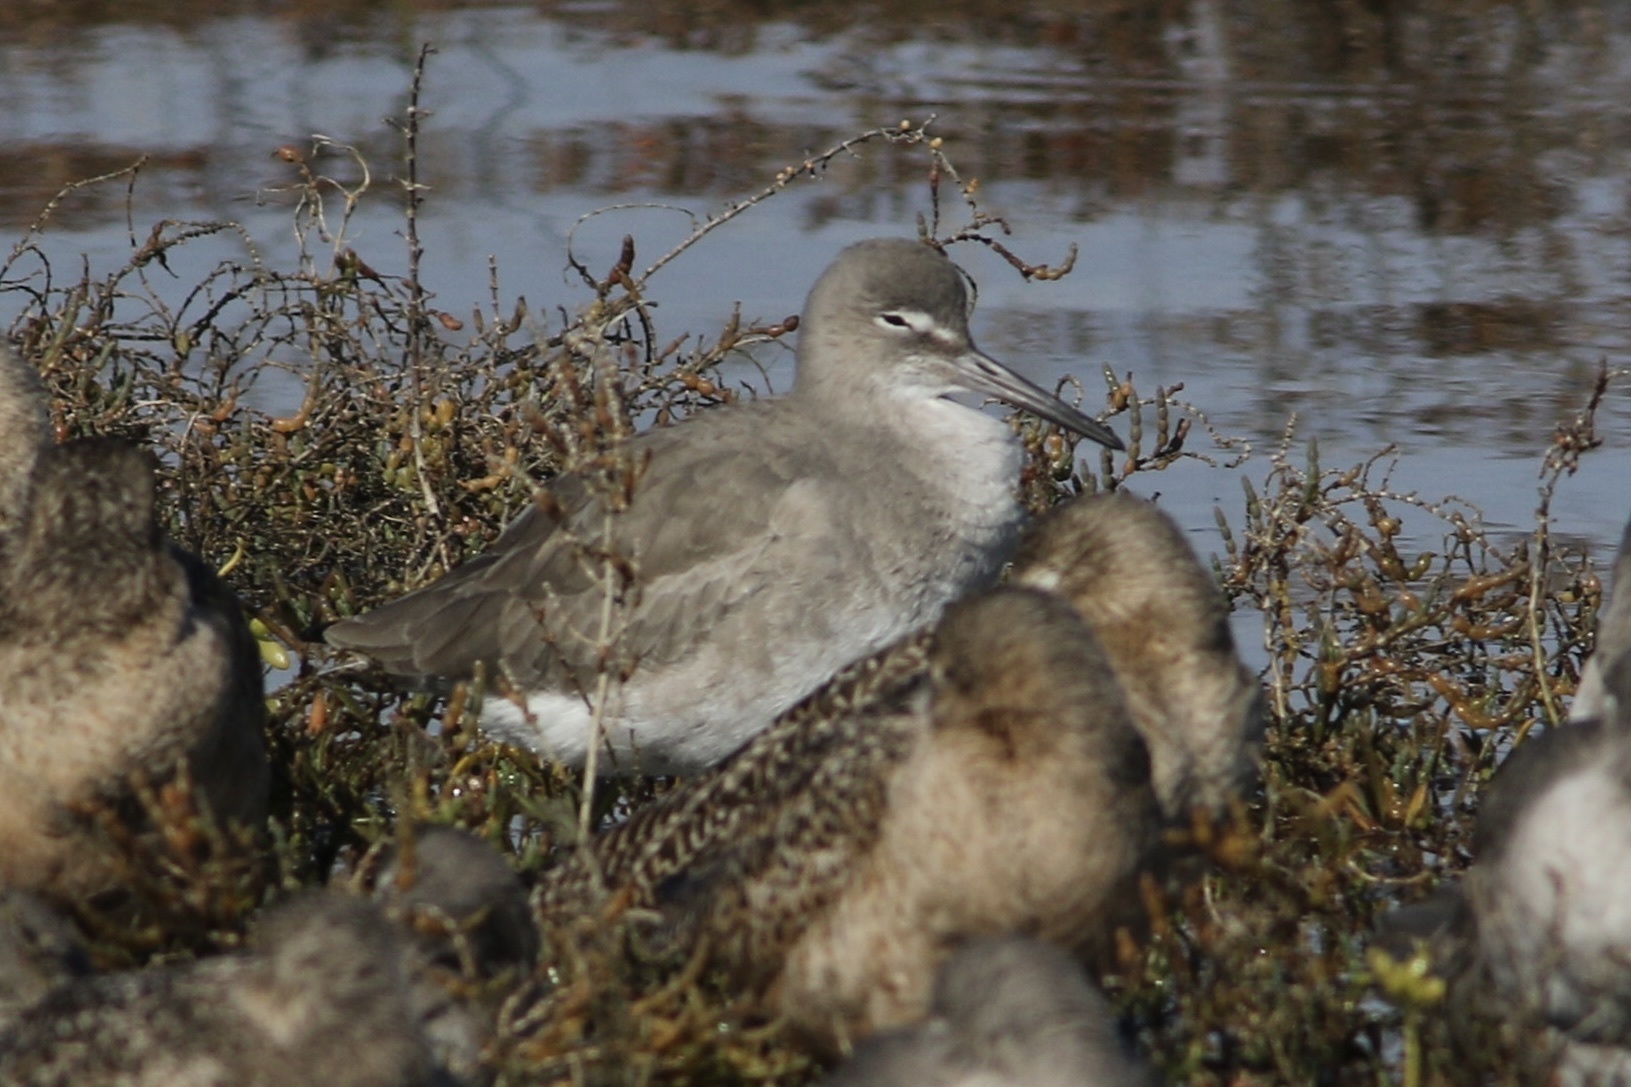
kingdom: Animalia
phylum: Chordata
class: Aves
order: Charadriiformes
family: Scolopacidae
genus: Tringa
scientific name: Tringa semipalmata
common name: Willet
